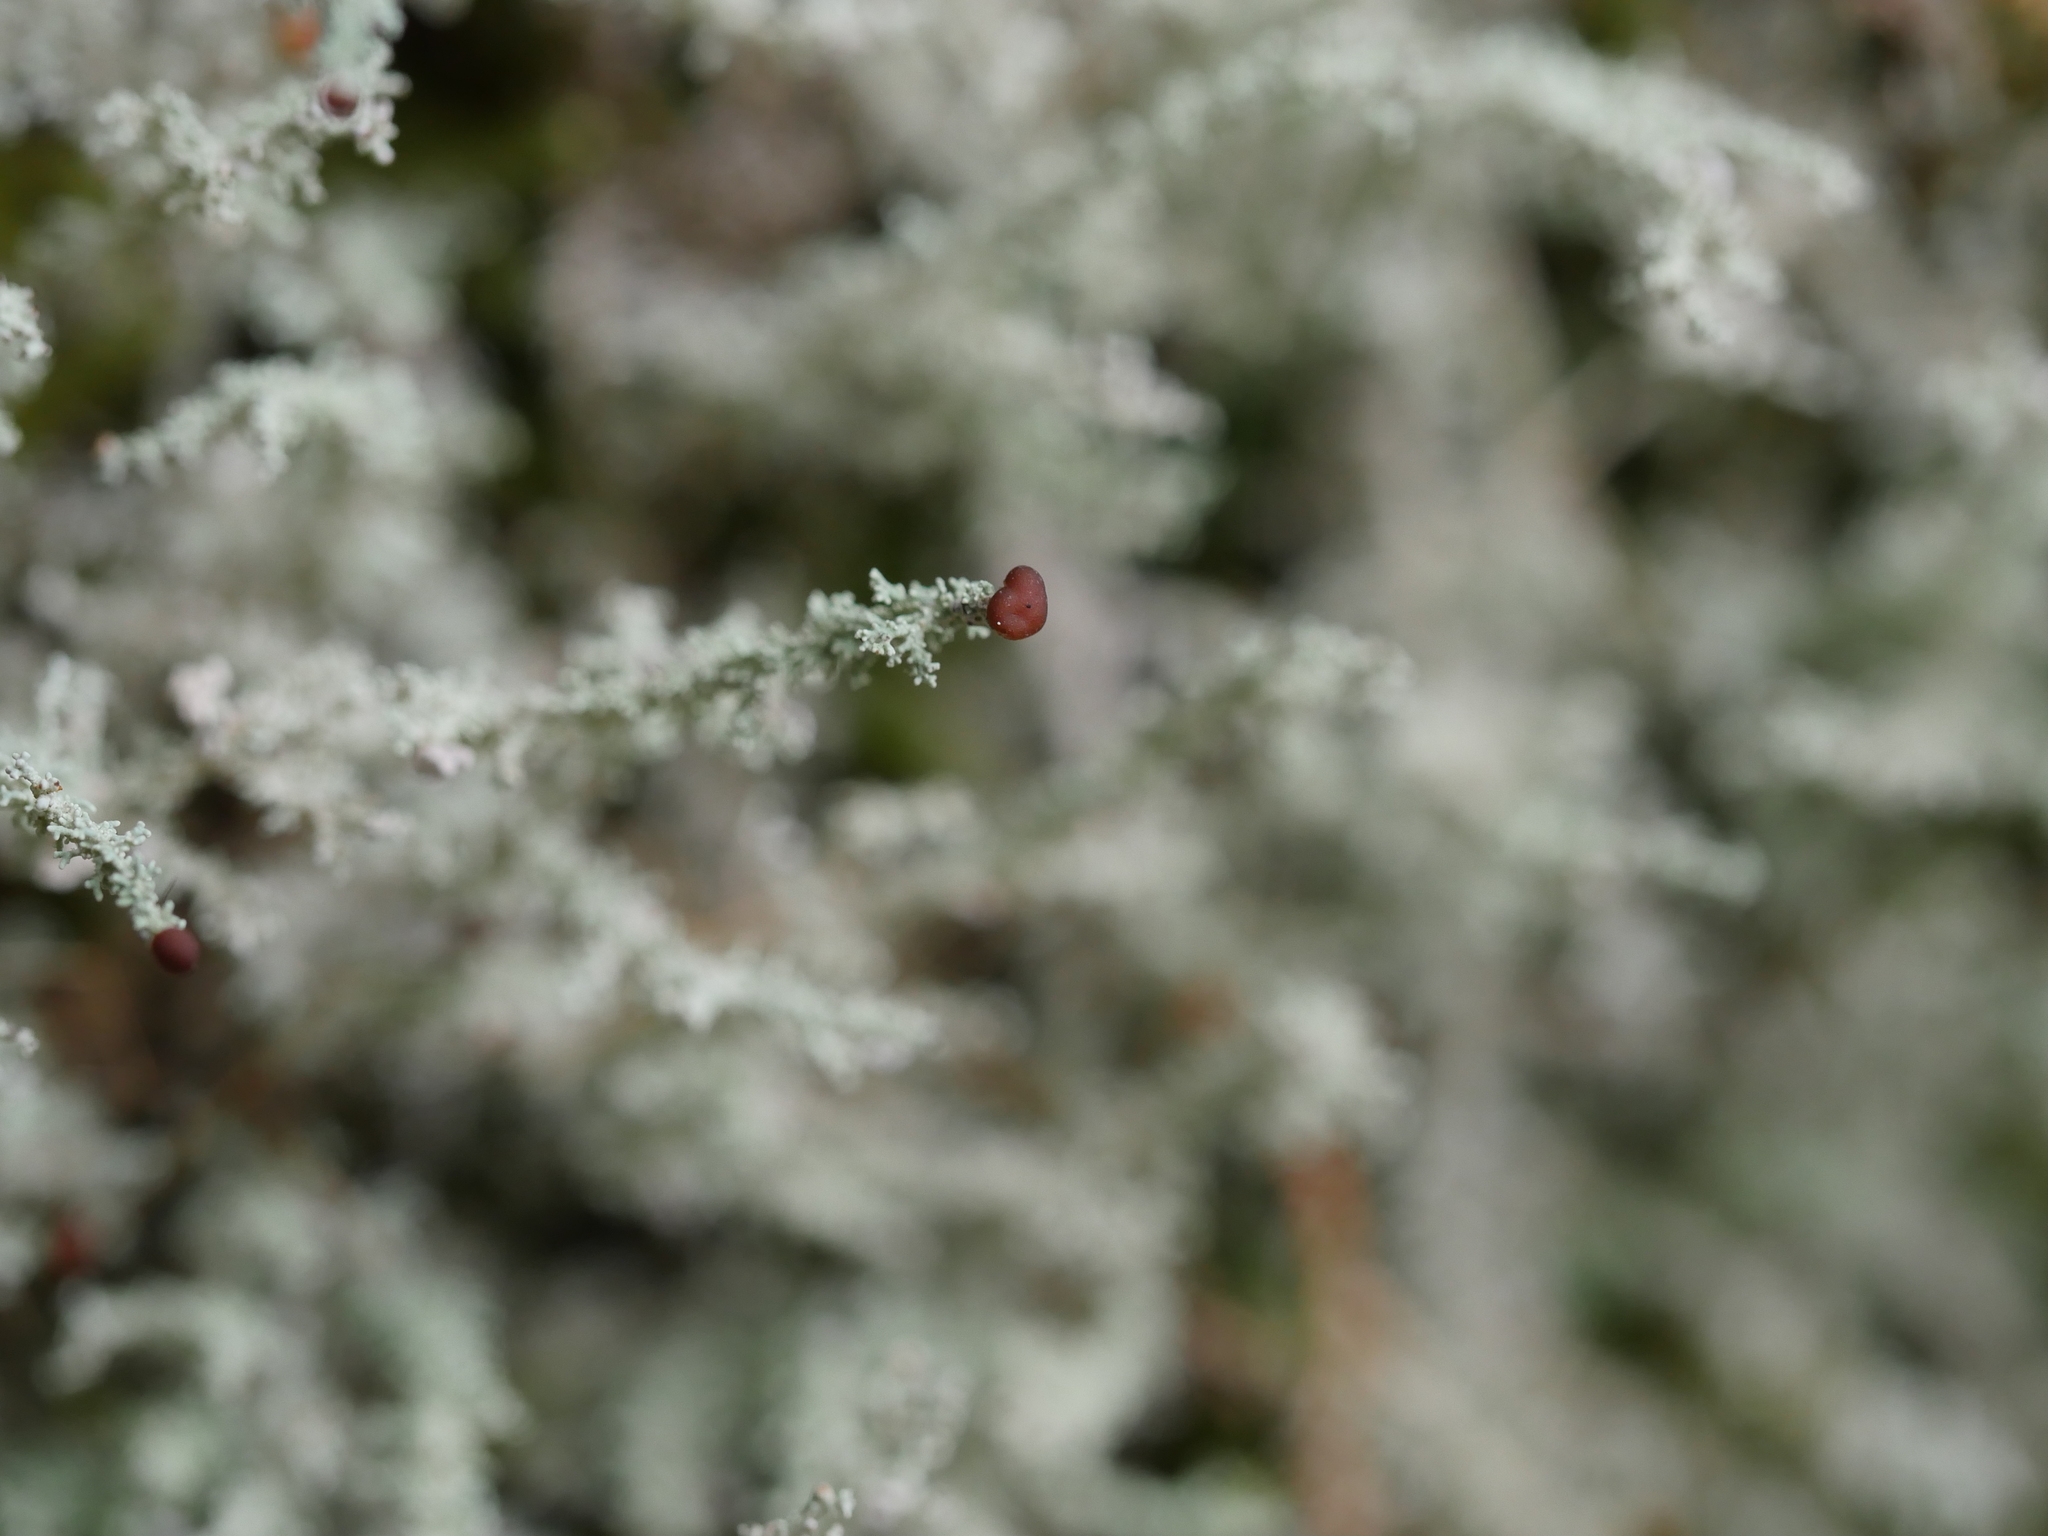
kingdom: Fungi
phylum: Ascomycota
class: Lecanoromycetes
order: Lecanorales
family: Stereocaulaceae
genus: Stereocaulon
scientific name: Stereocaulon ramulosum
